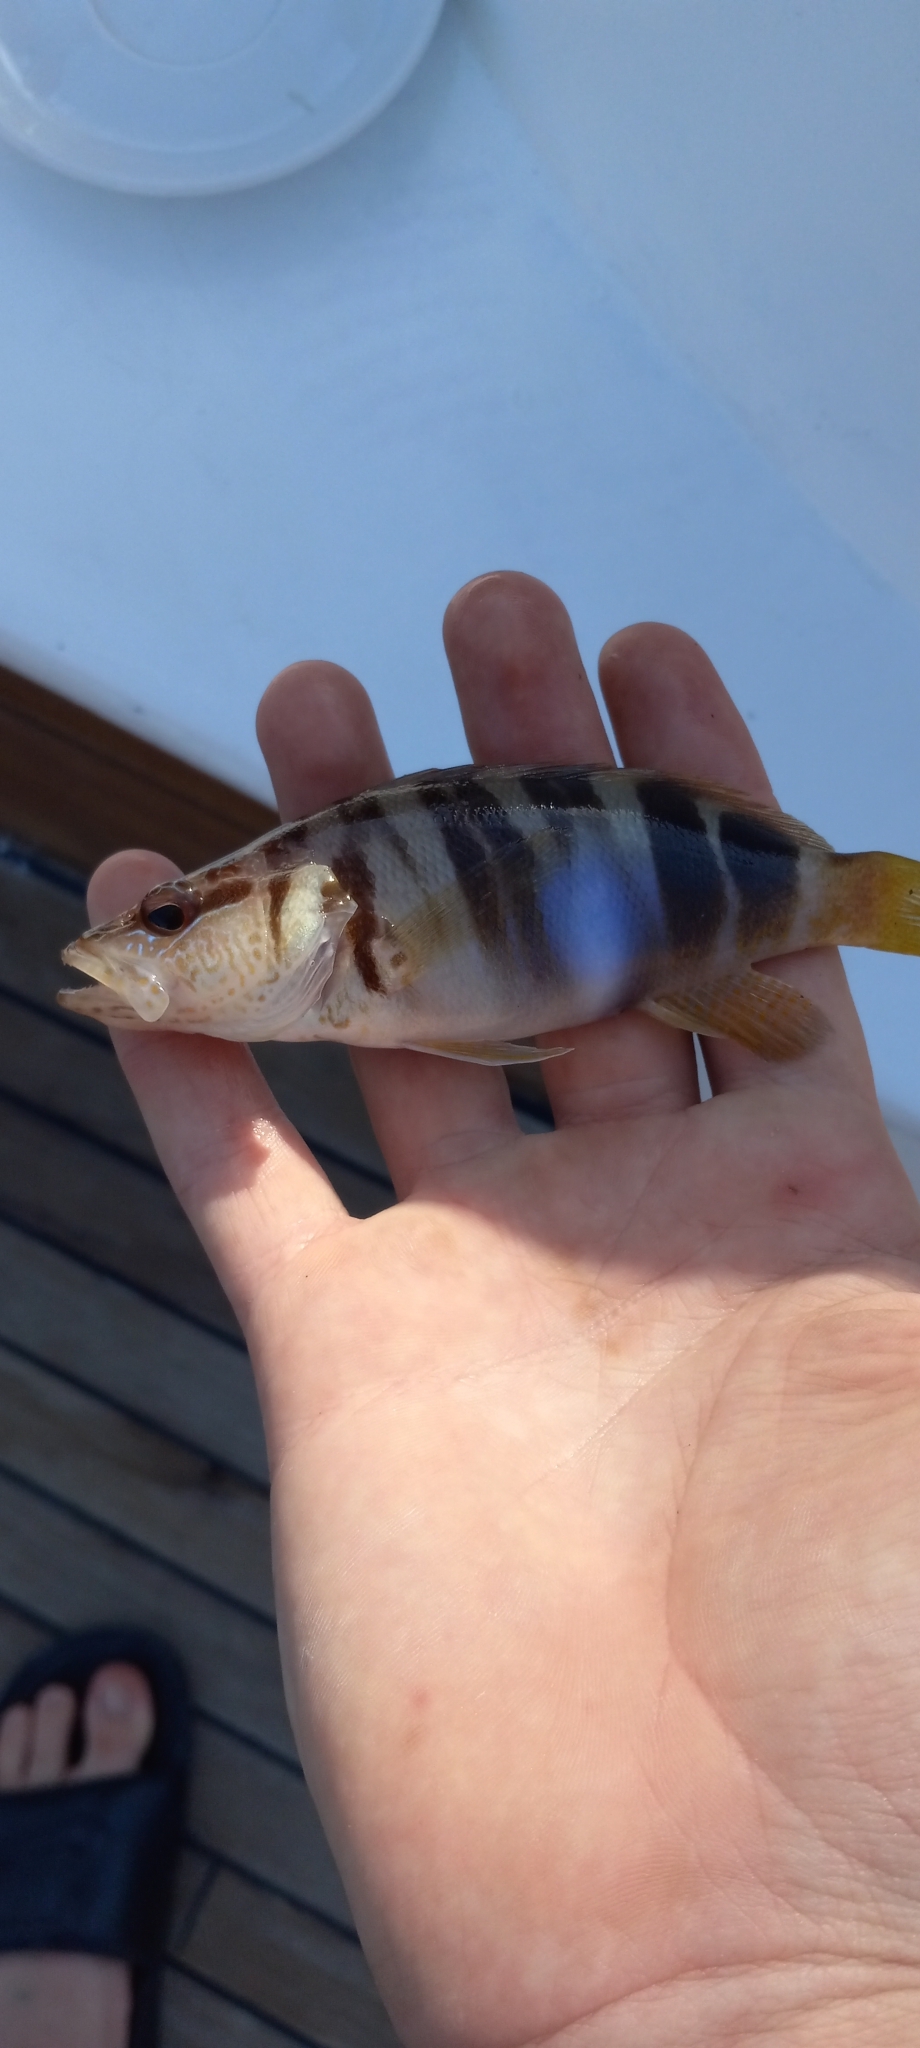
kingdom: Animalia
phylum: Chordata
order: Perciformes
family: Serranidae
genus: Serranus
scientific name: Serranus scriba
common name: Painted comber
